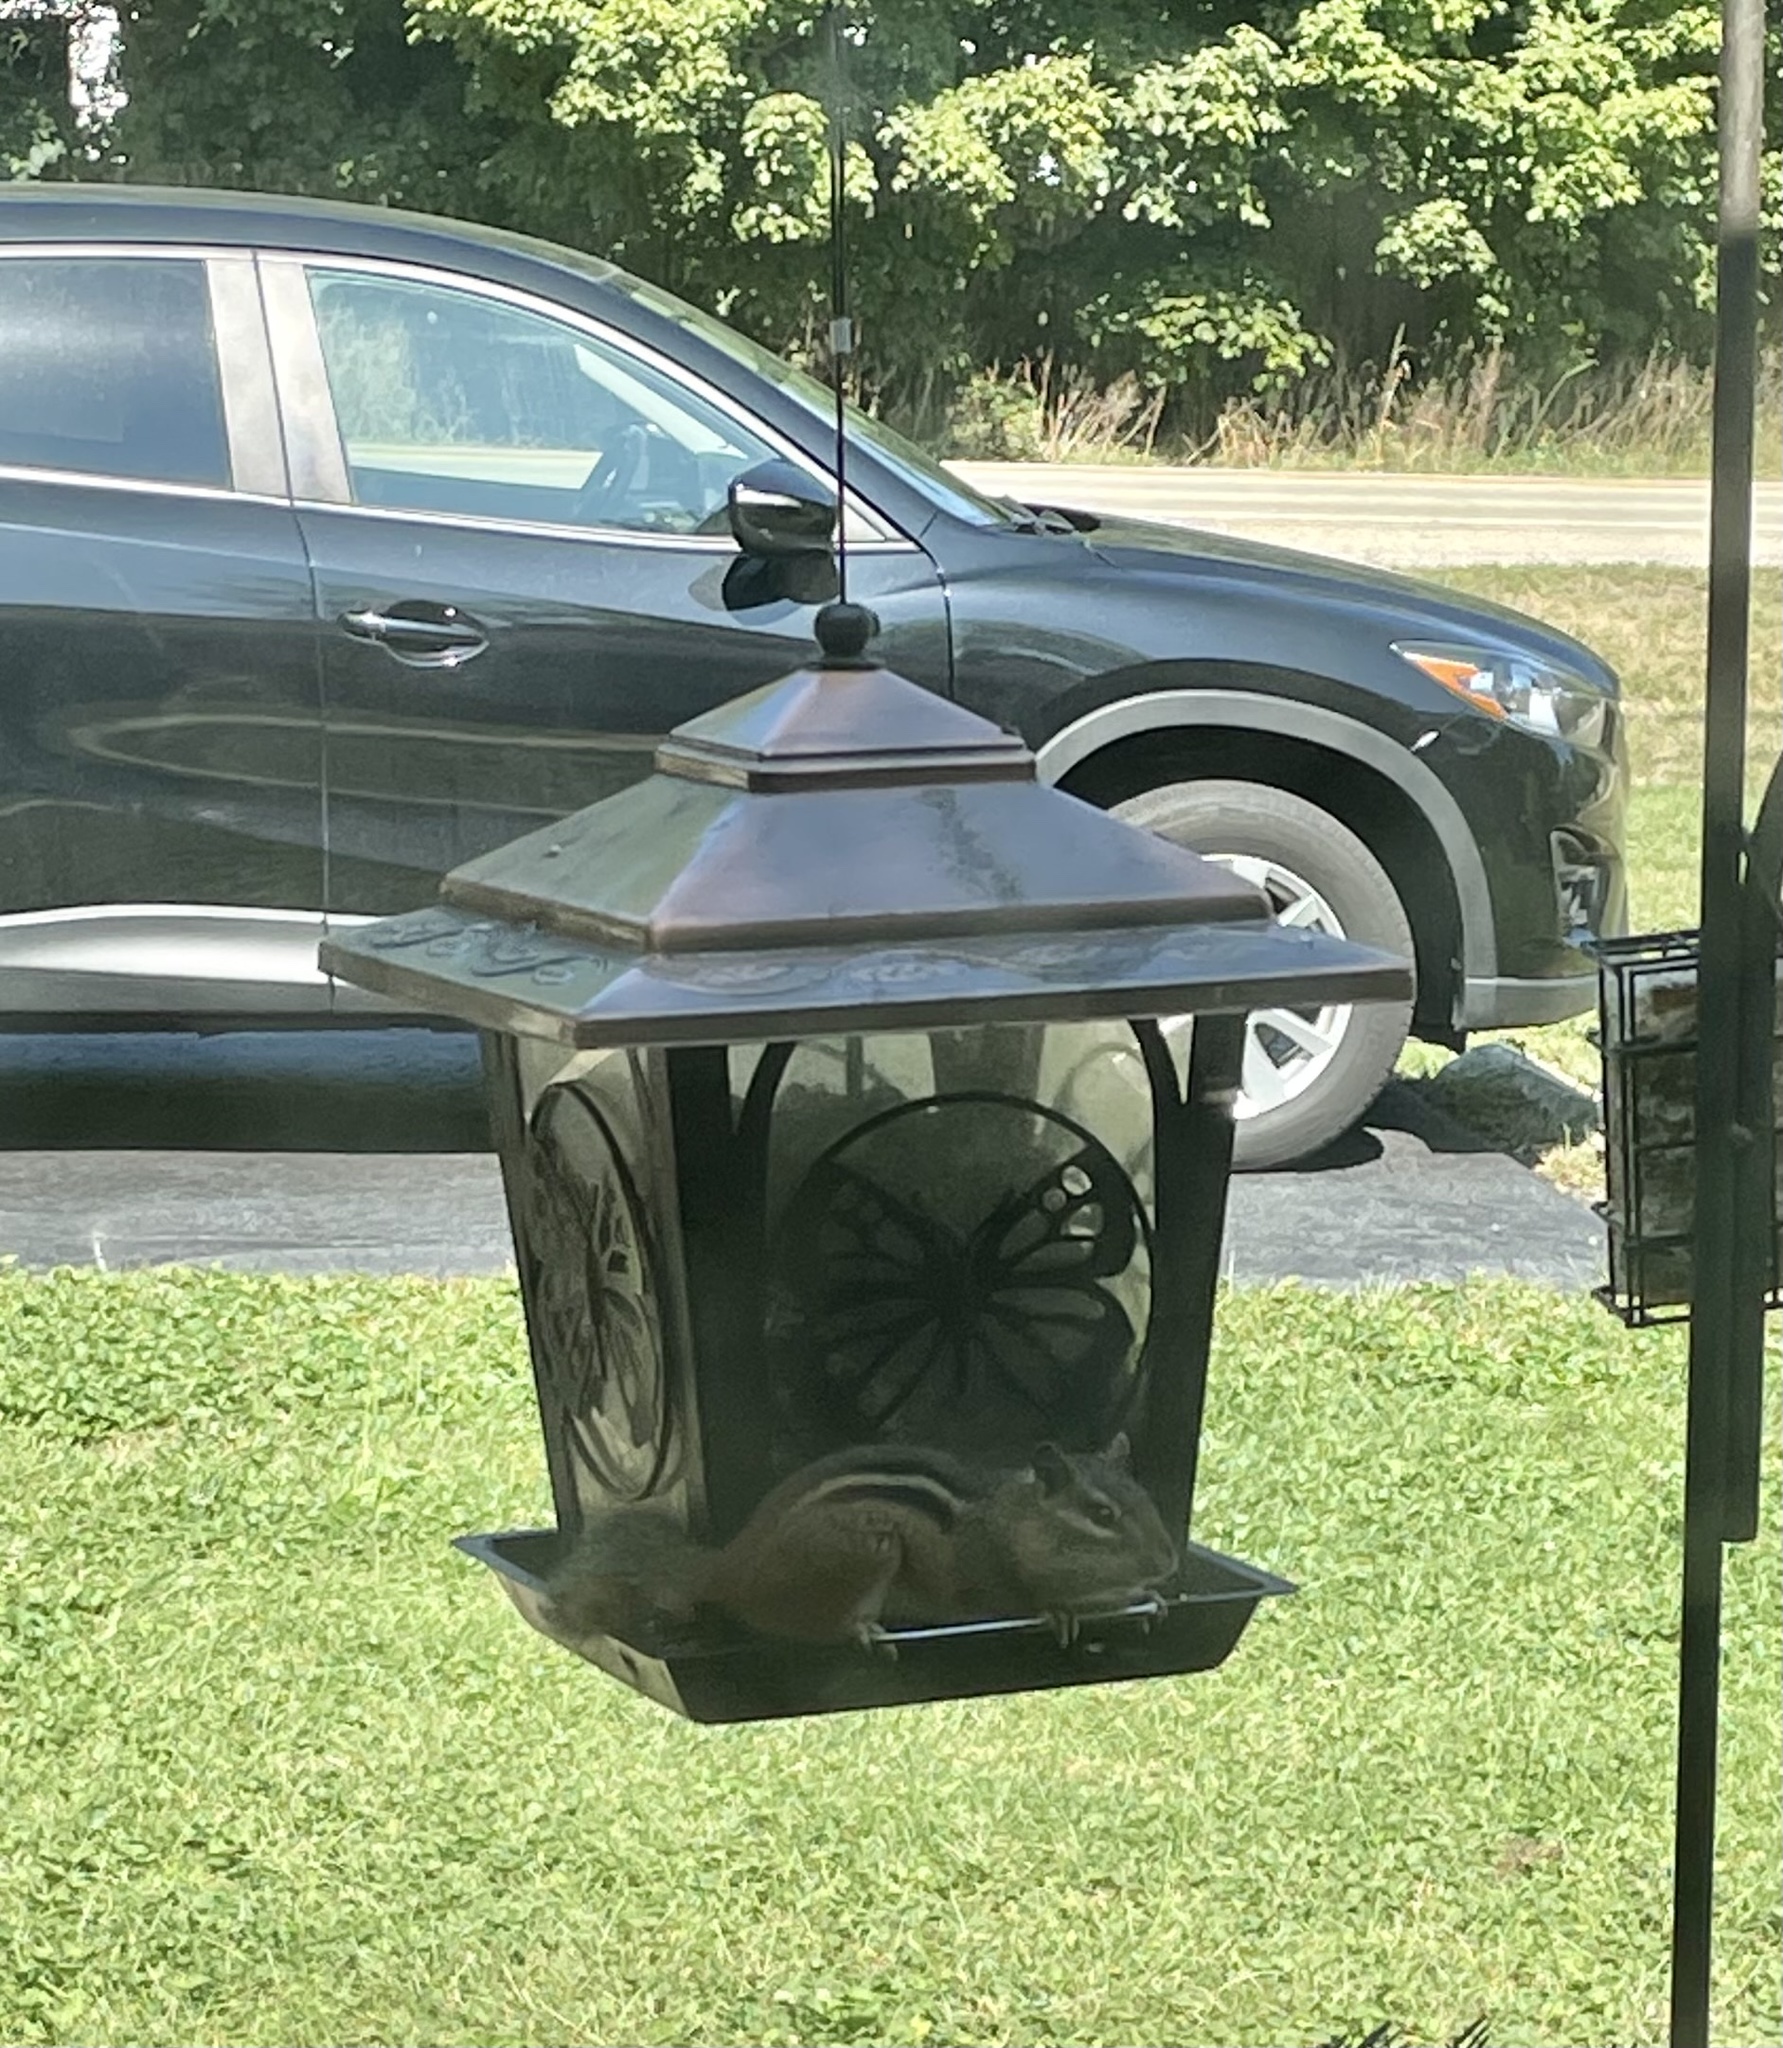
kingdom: Animalia
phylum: Chordata
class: Mammalia
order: Rodentia
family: Sciuridae
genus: Tamias
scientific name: Tamias striatus
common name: Eastern chipmunk
